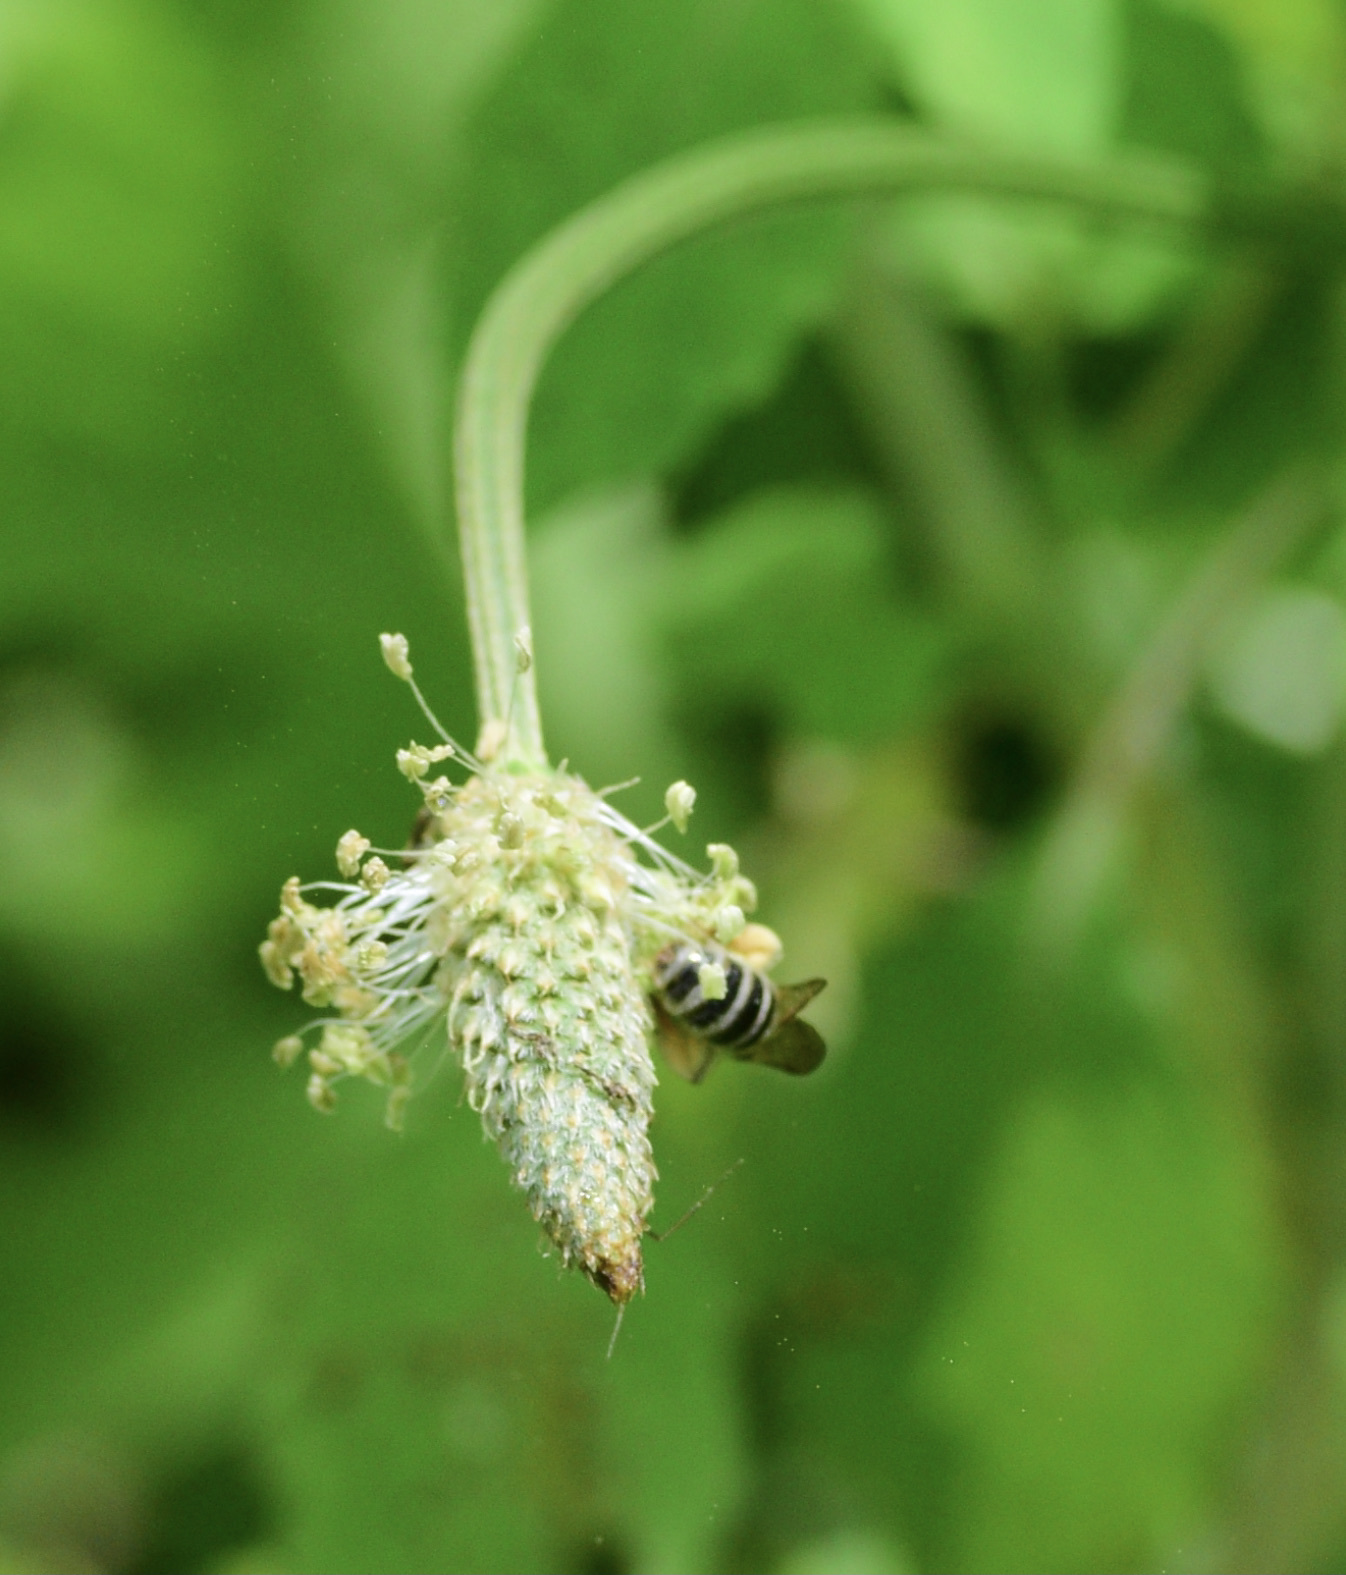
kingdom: Animalia
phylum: Arthropoda
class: Insecta
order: Hymenoptera
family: Halictidae
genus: Agapostemon
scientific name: Agapostemon virescens
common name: Bicolored striped sweat bee
